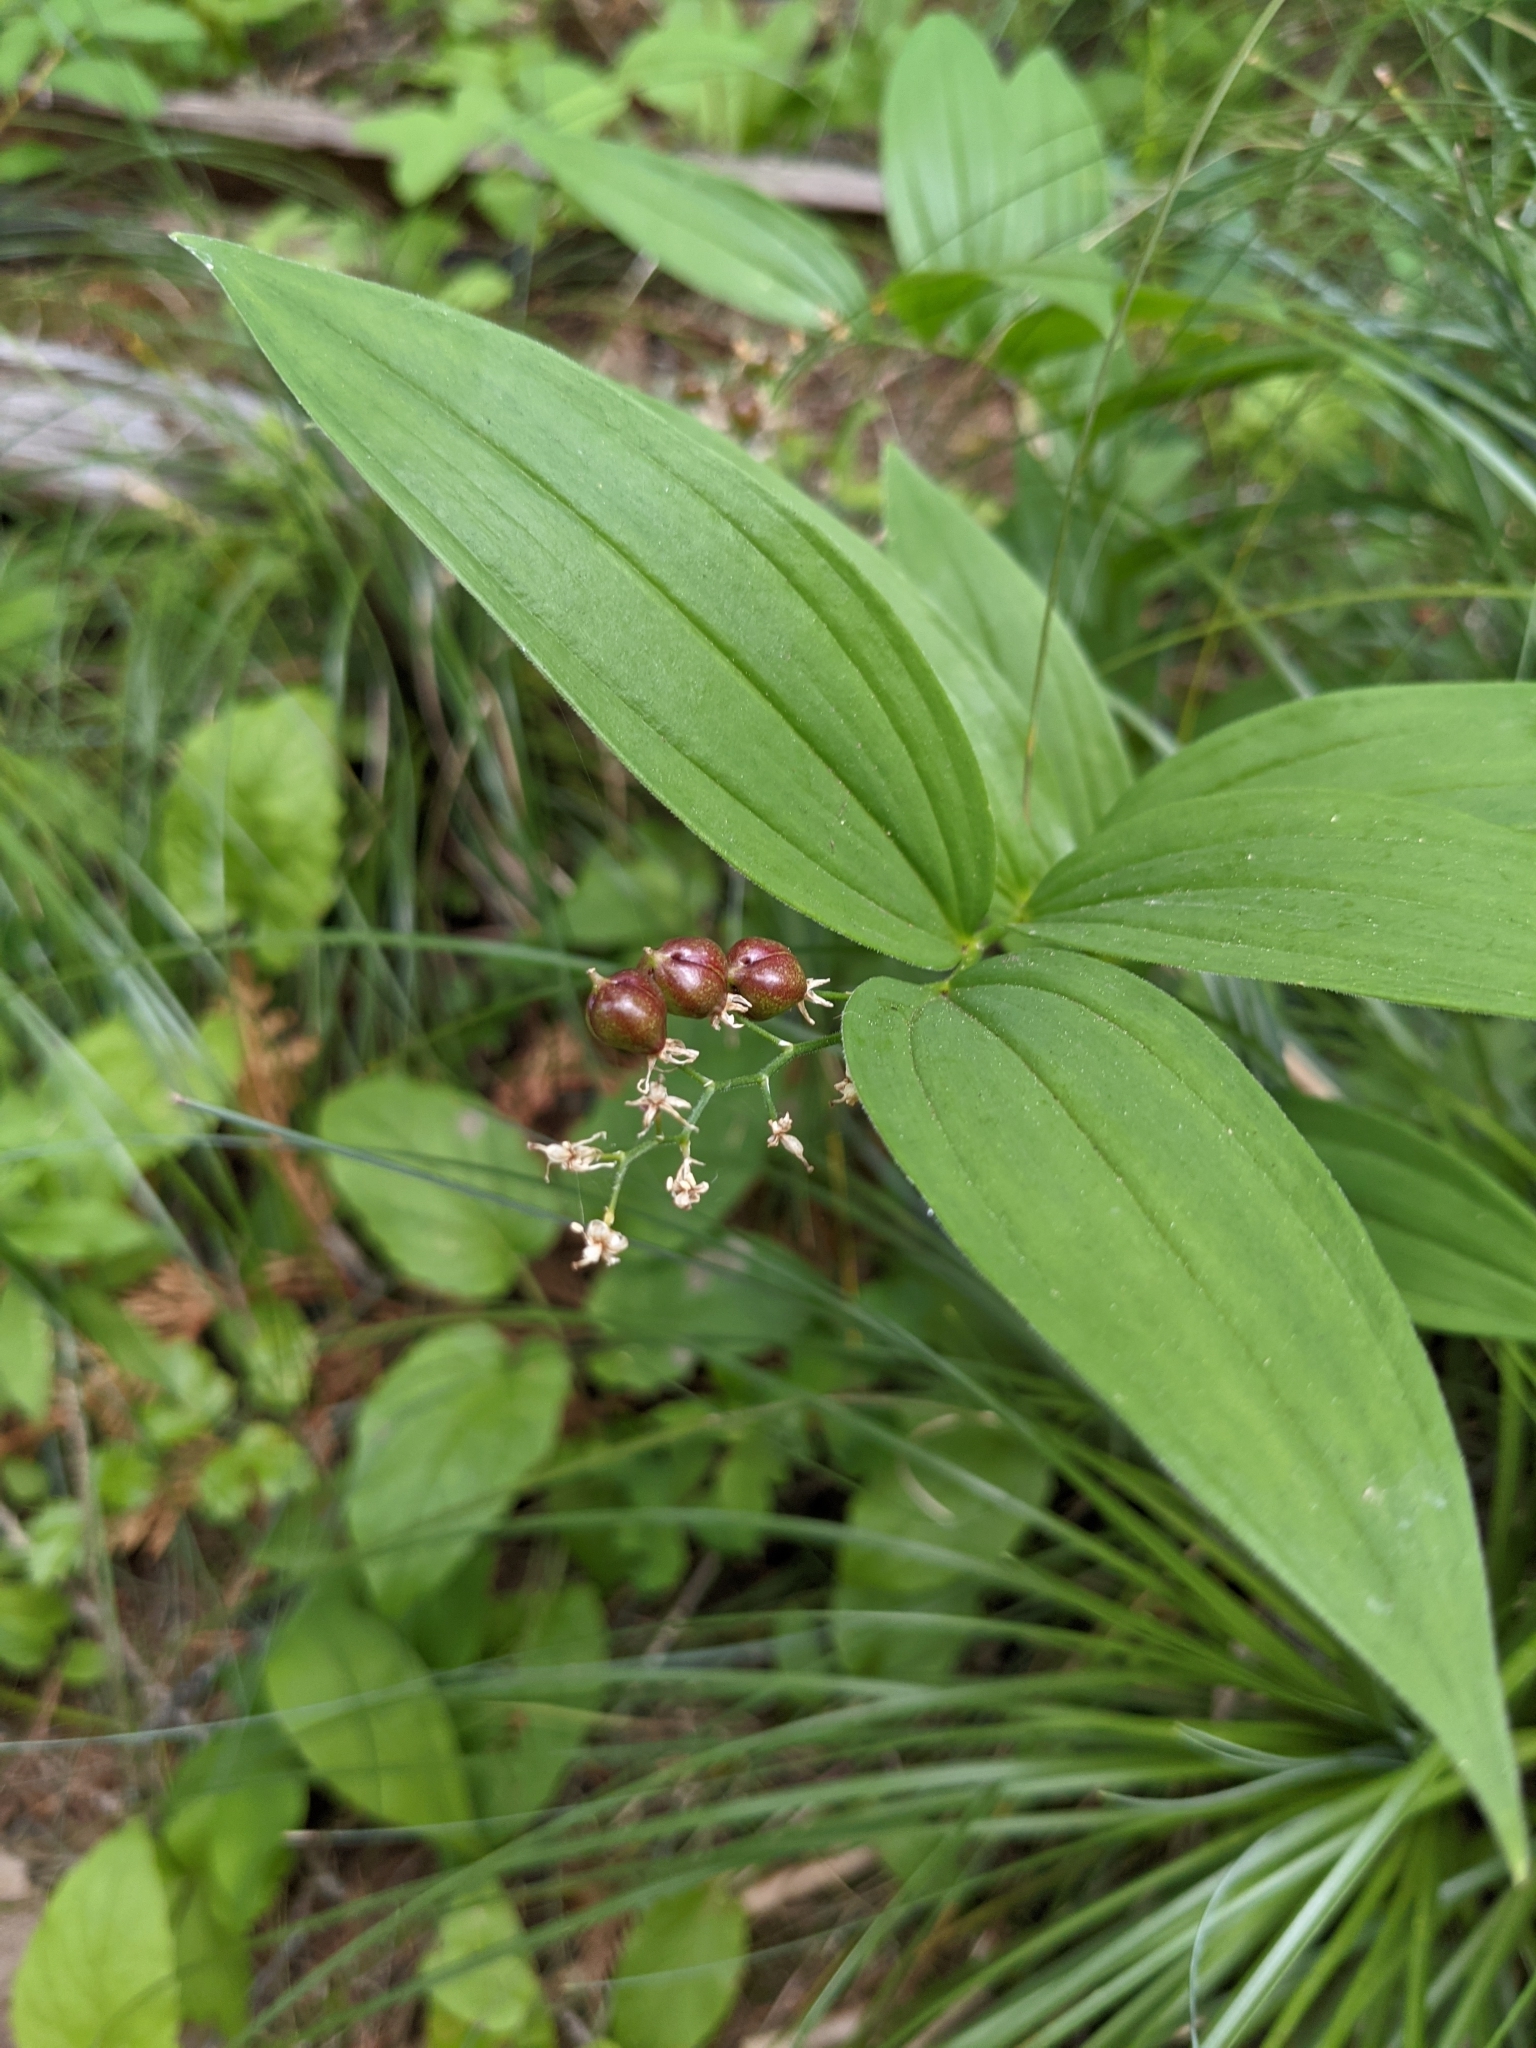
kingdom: Plantae
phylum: Tracheophyta
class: Liliopsida
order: Asparagales
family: Asparagaceae
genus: Maianthemum
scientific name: Maianthemum stellatum
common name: Little false solomon's seal
